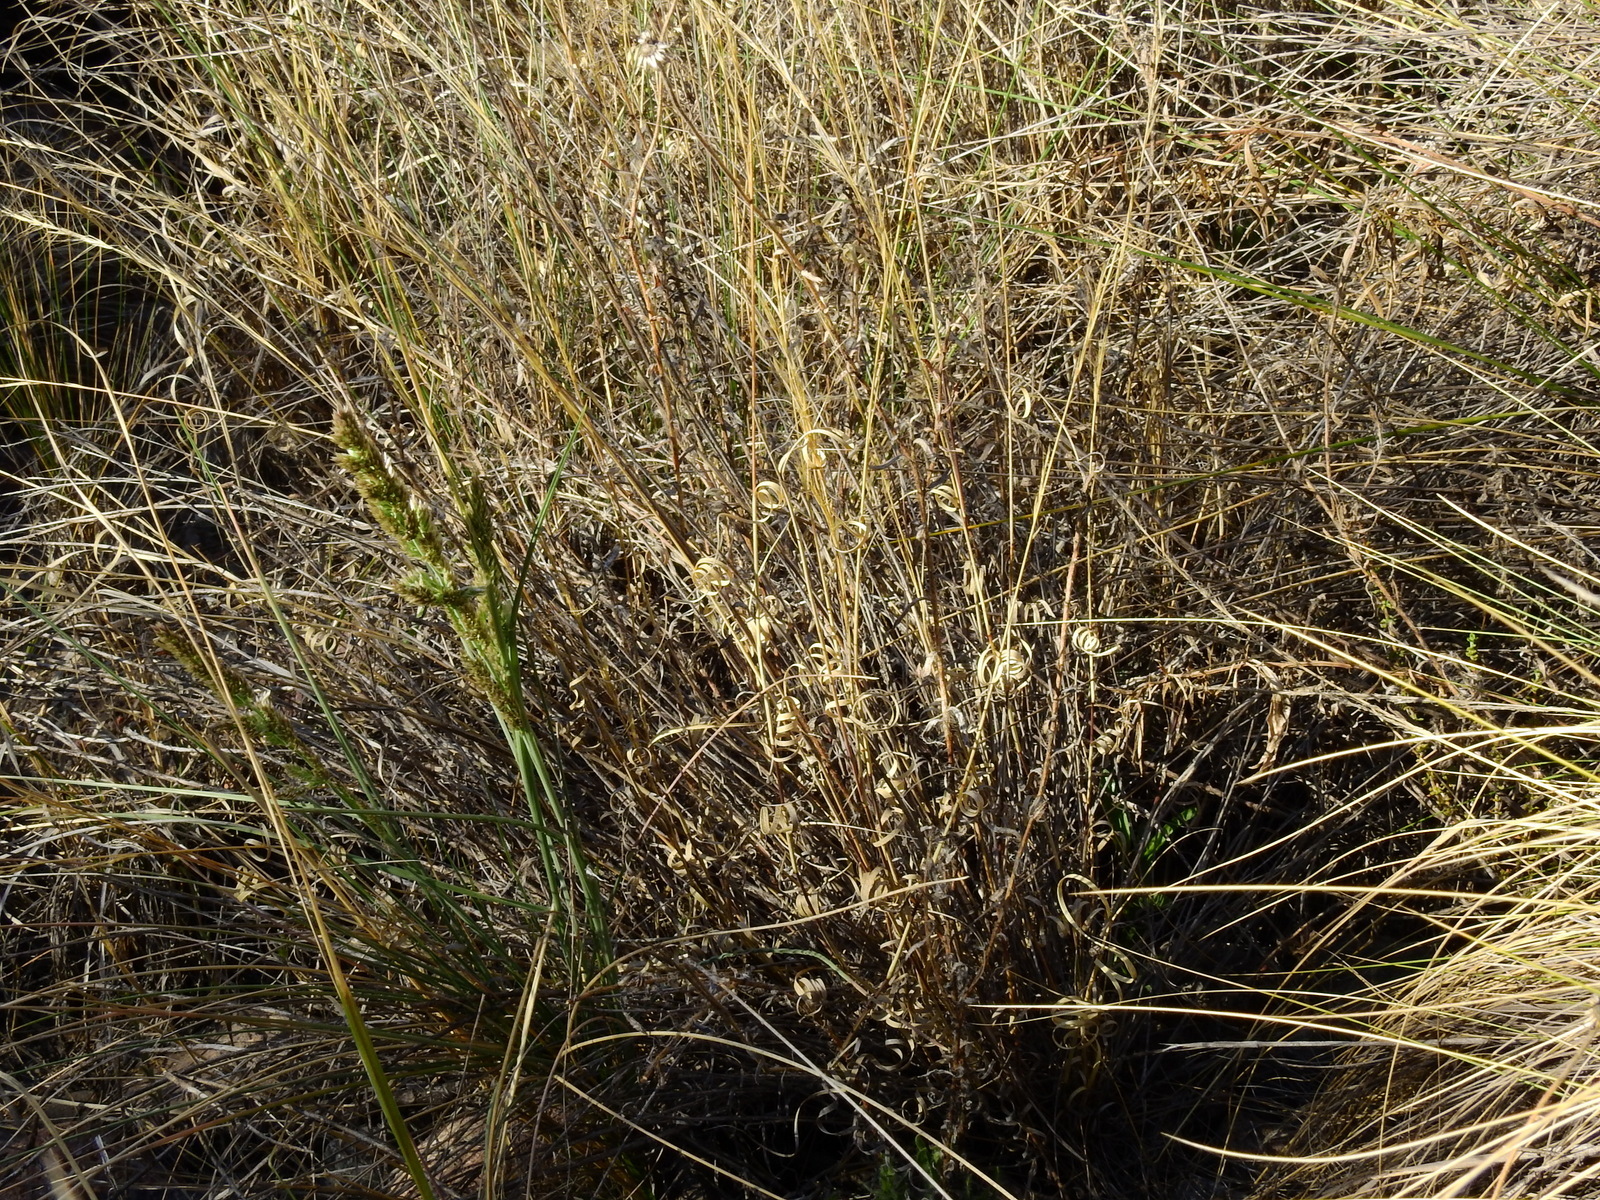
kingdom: Plantae
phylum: Tracheophyta
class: Liliopsida
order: Poales
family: Poaceae
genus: Aristida
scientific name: Aristida mendocina
